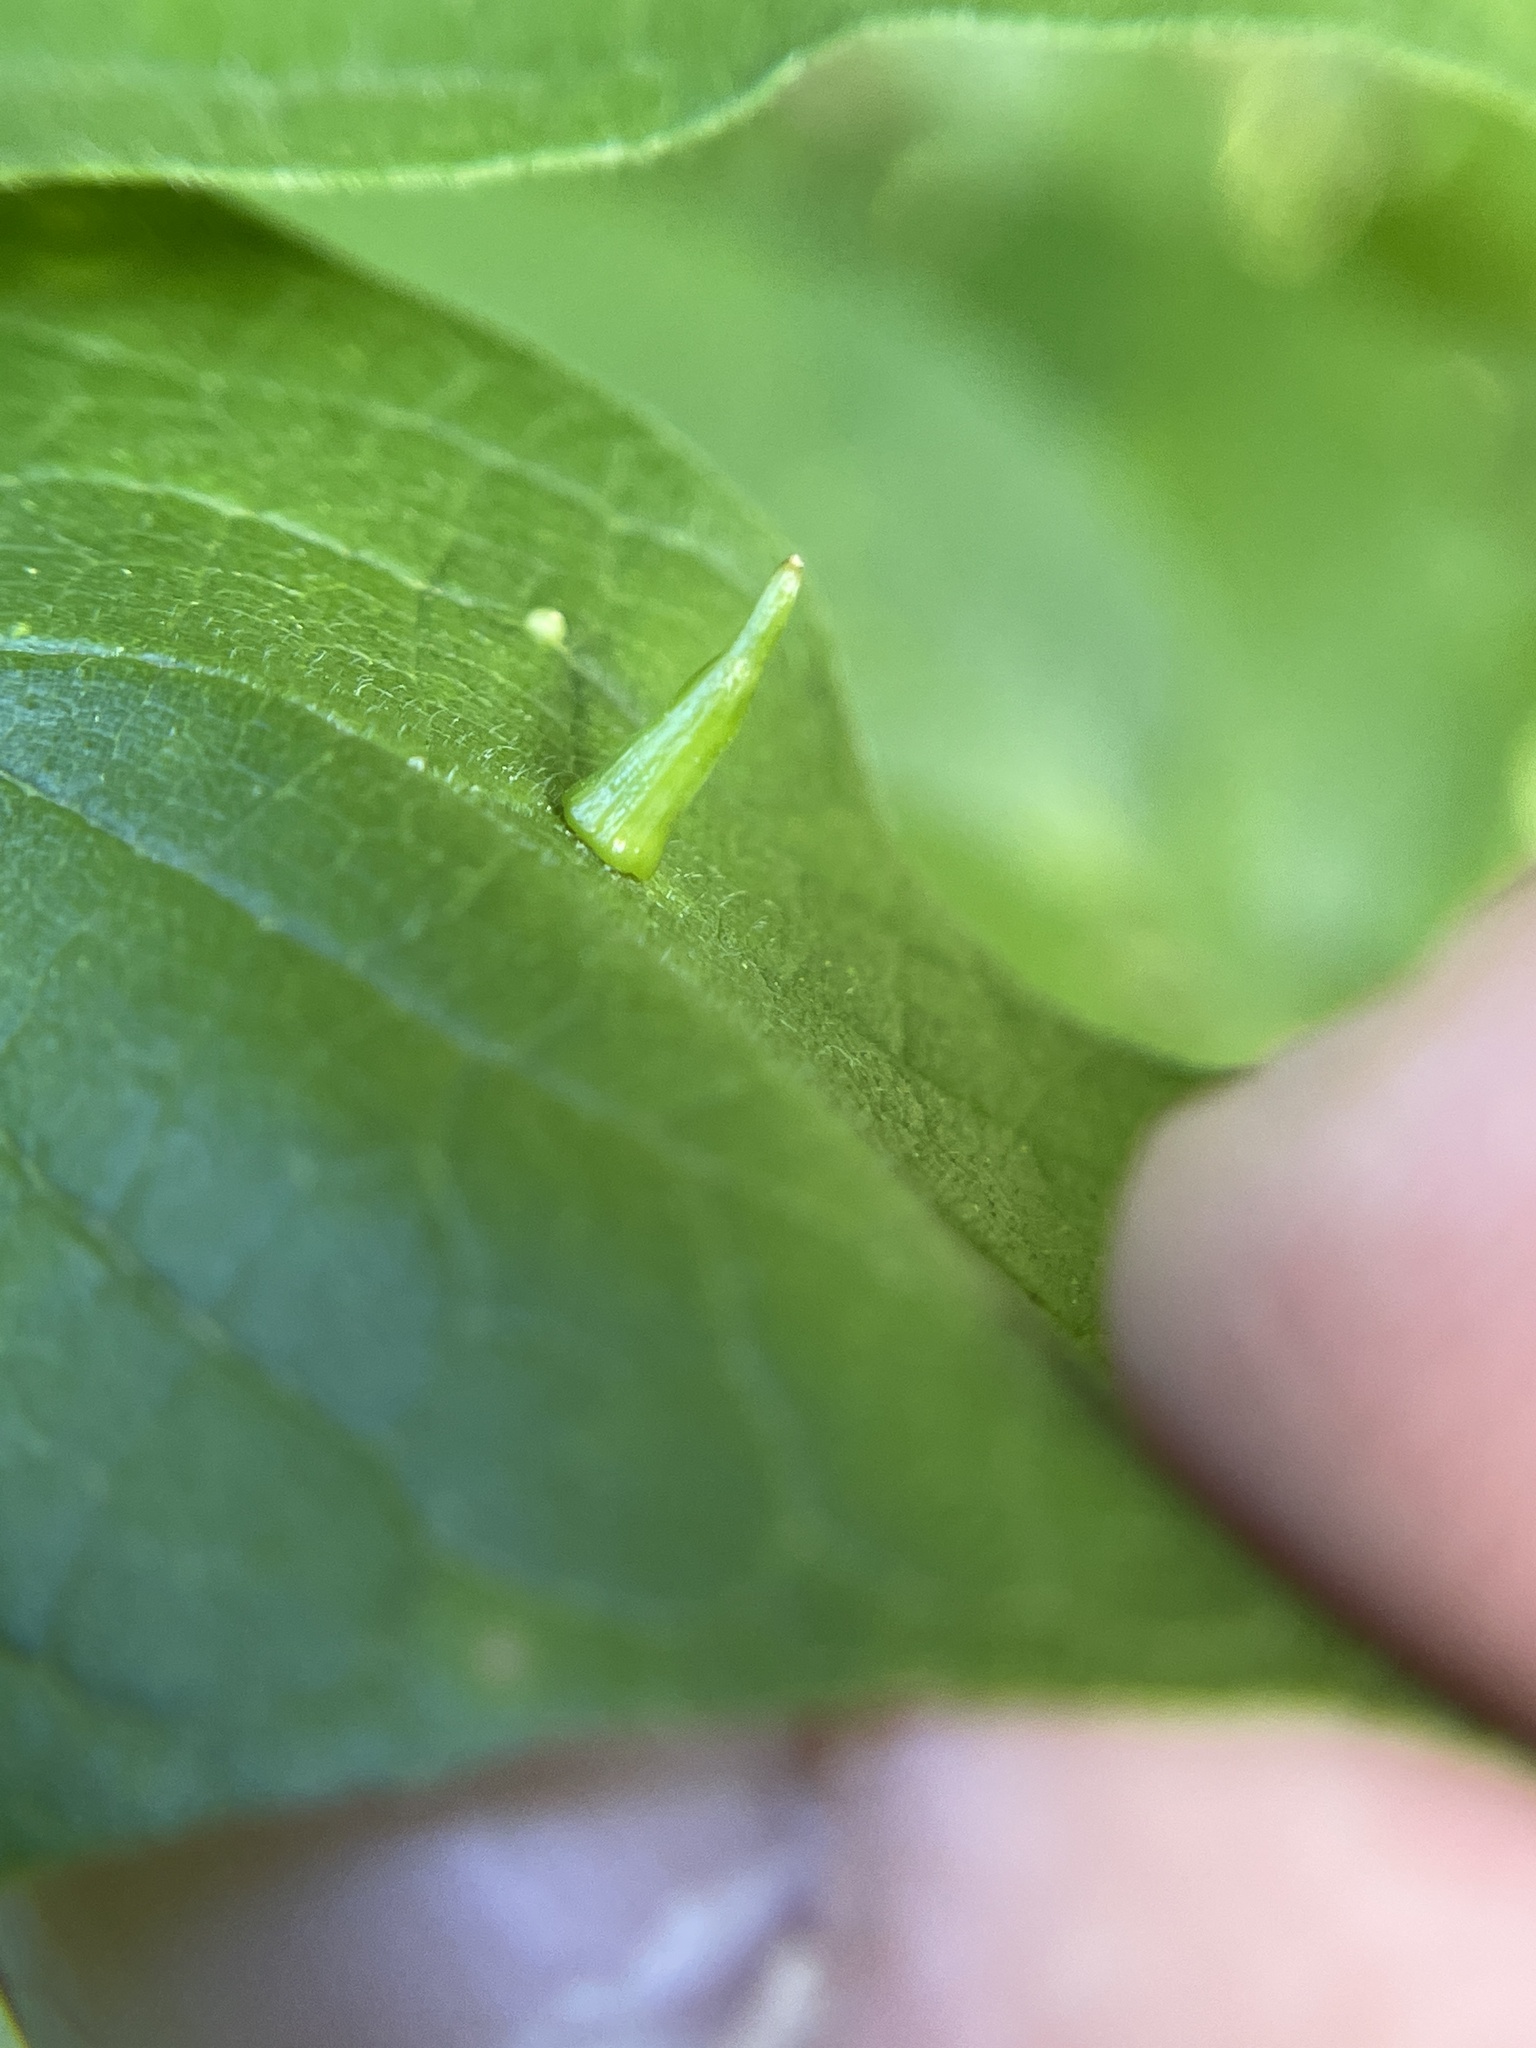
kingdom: Animalia
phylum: Arthropoda
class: Insecta
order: Diptera
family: Cecidomyiidae
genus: Celticecis
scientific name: Celticecis subulata
